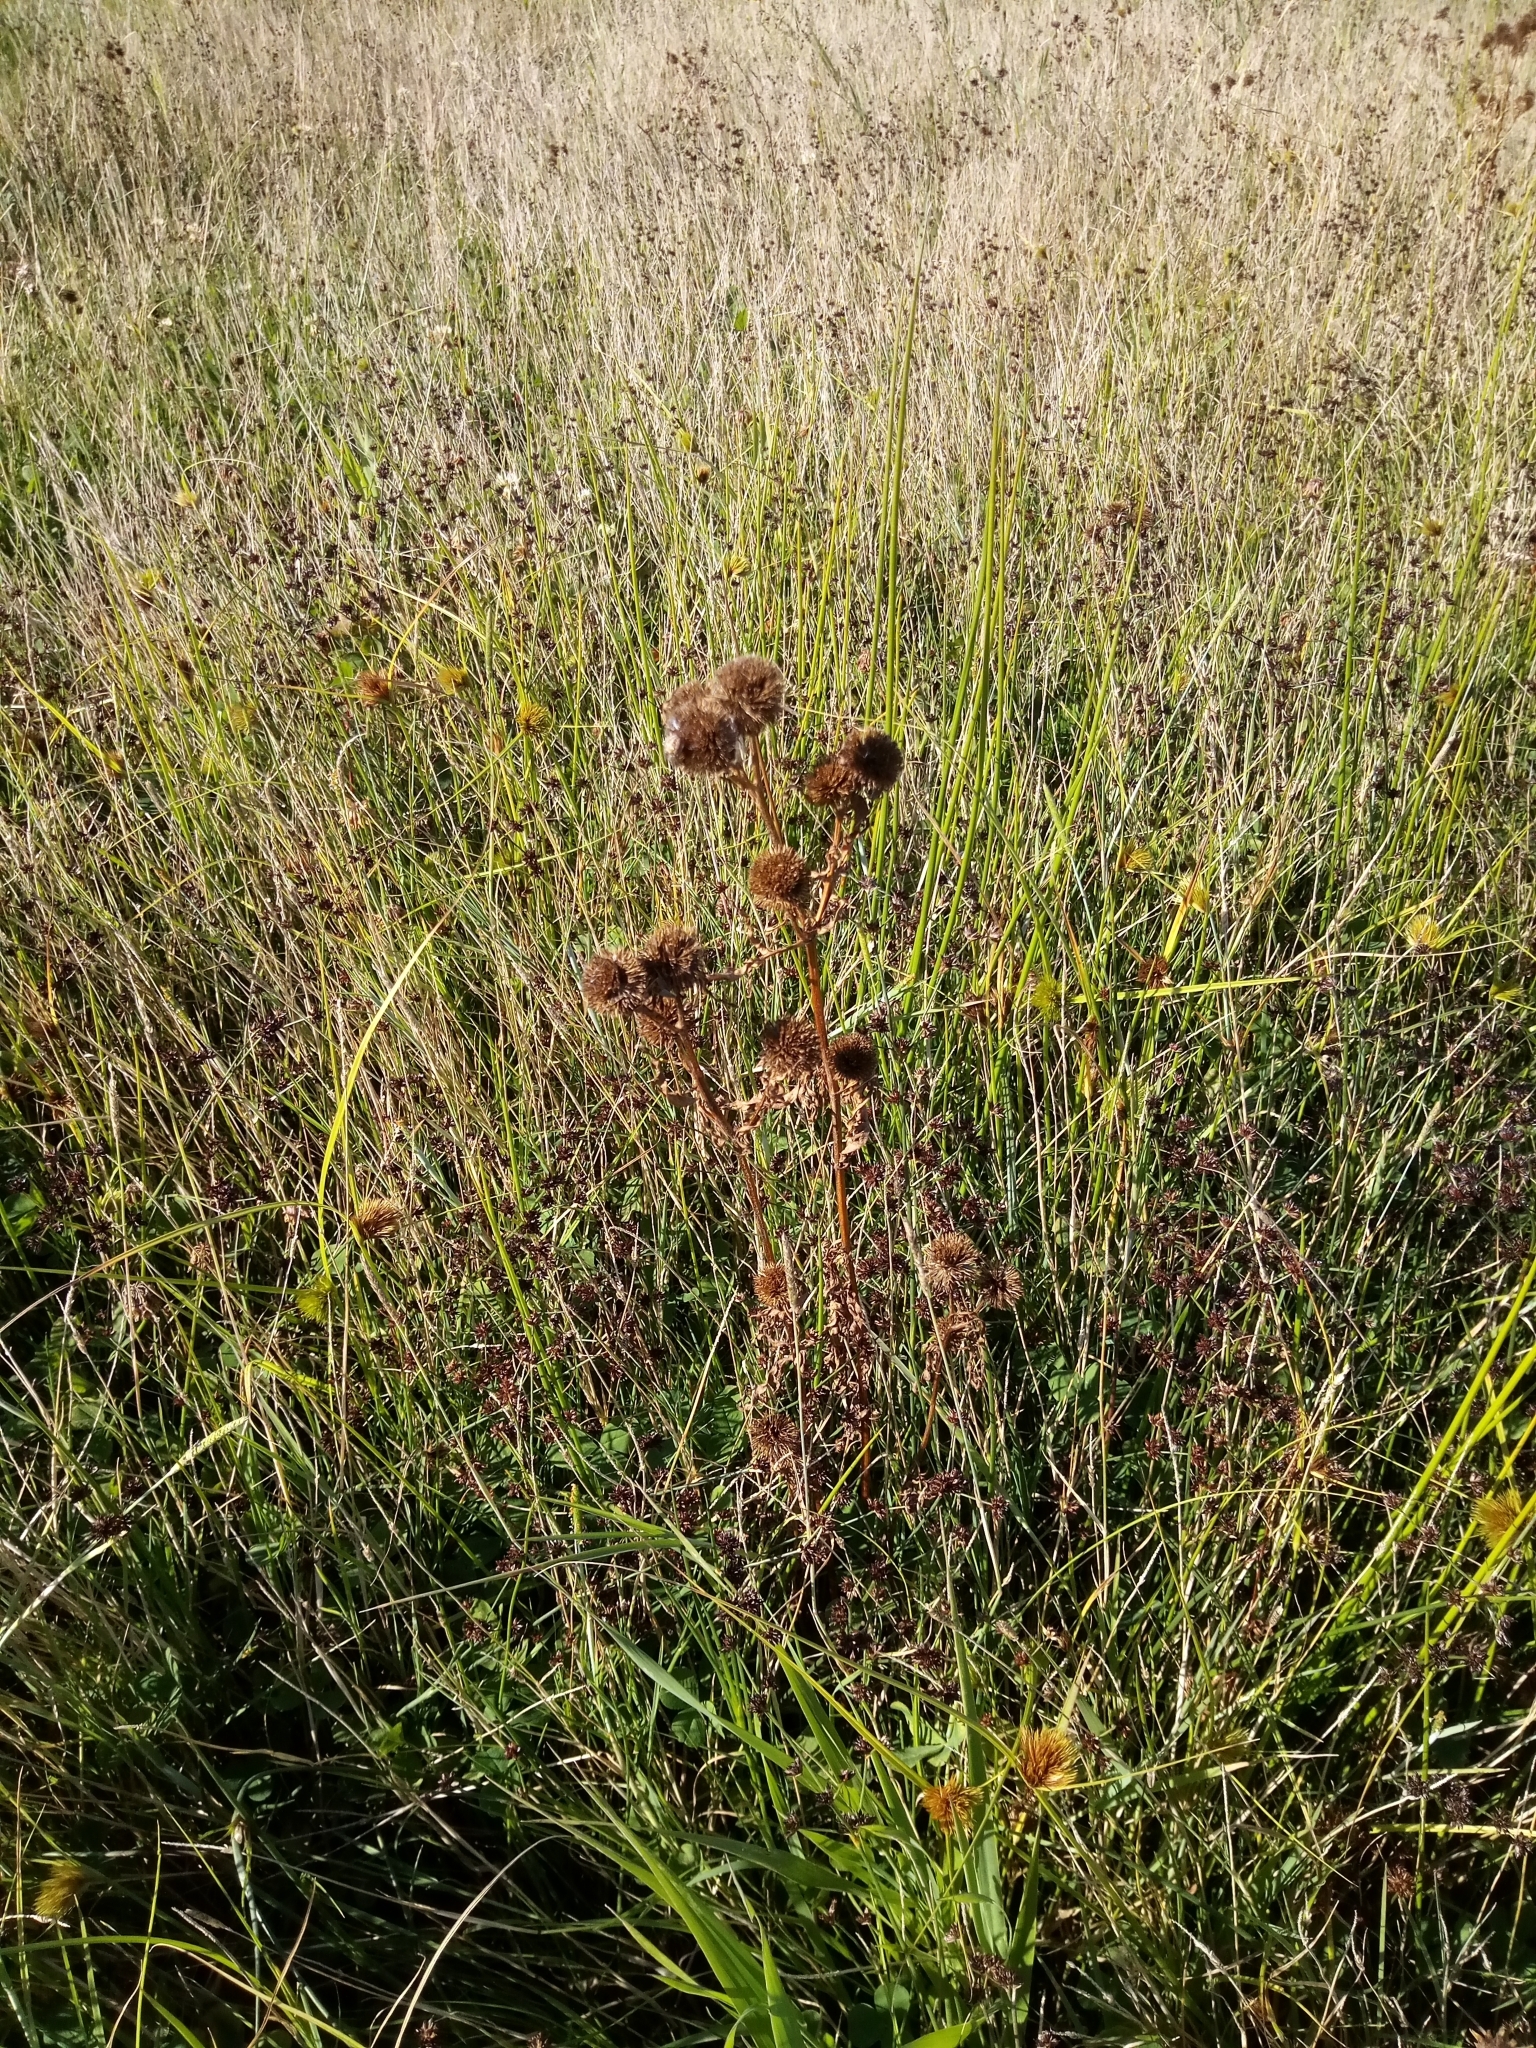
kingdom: Plantae
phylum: Tracheophyta
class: Magnoliopsida
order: Asterales
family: Asteraceae
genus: Bidens
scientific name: Bidens radiata
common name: Radiating bur-marigold
